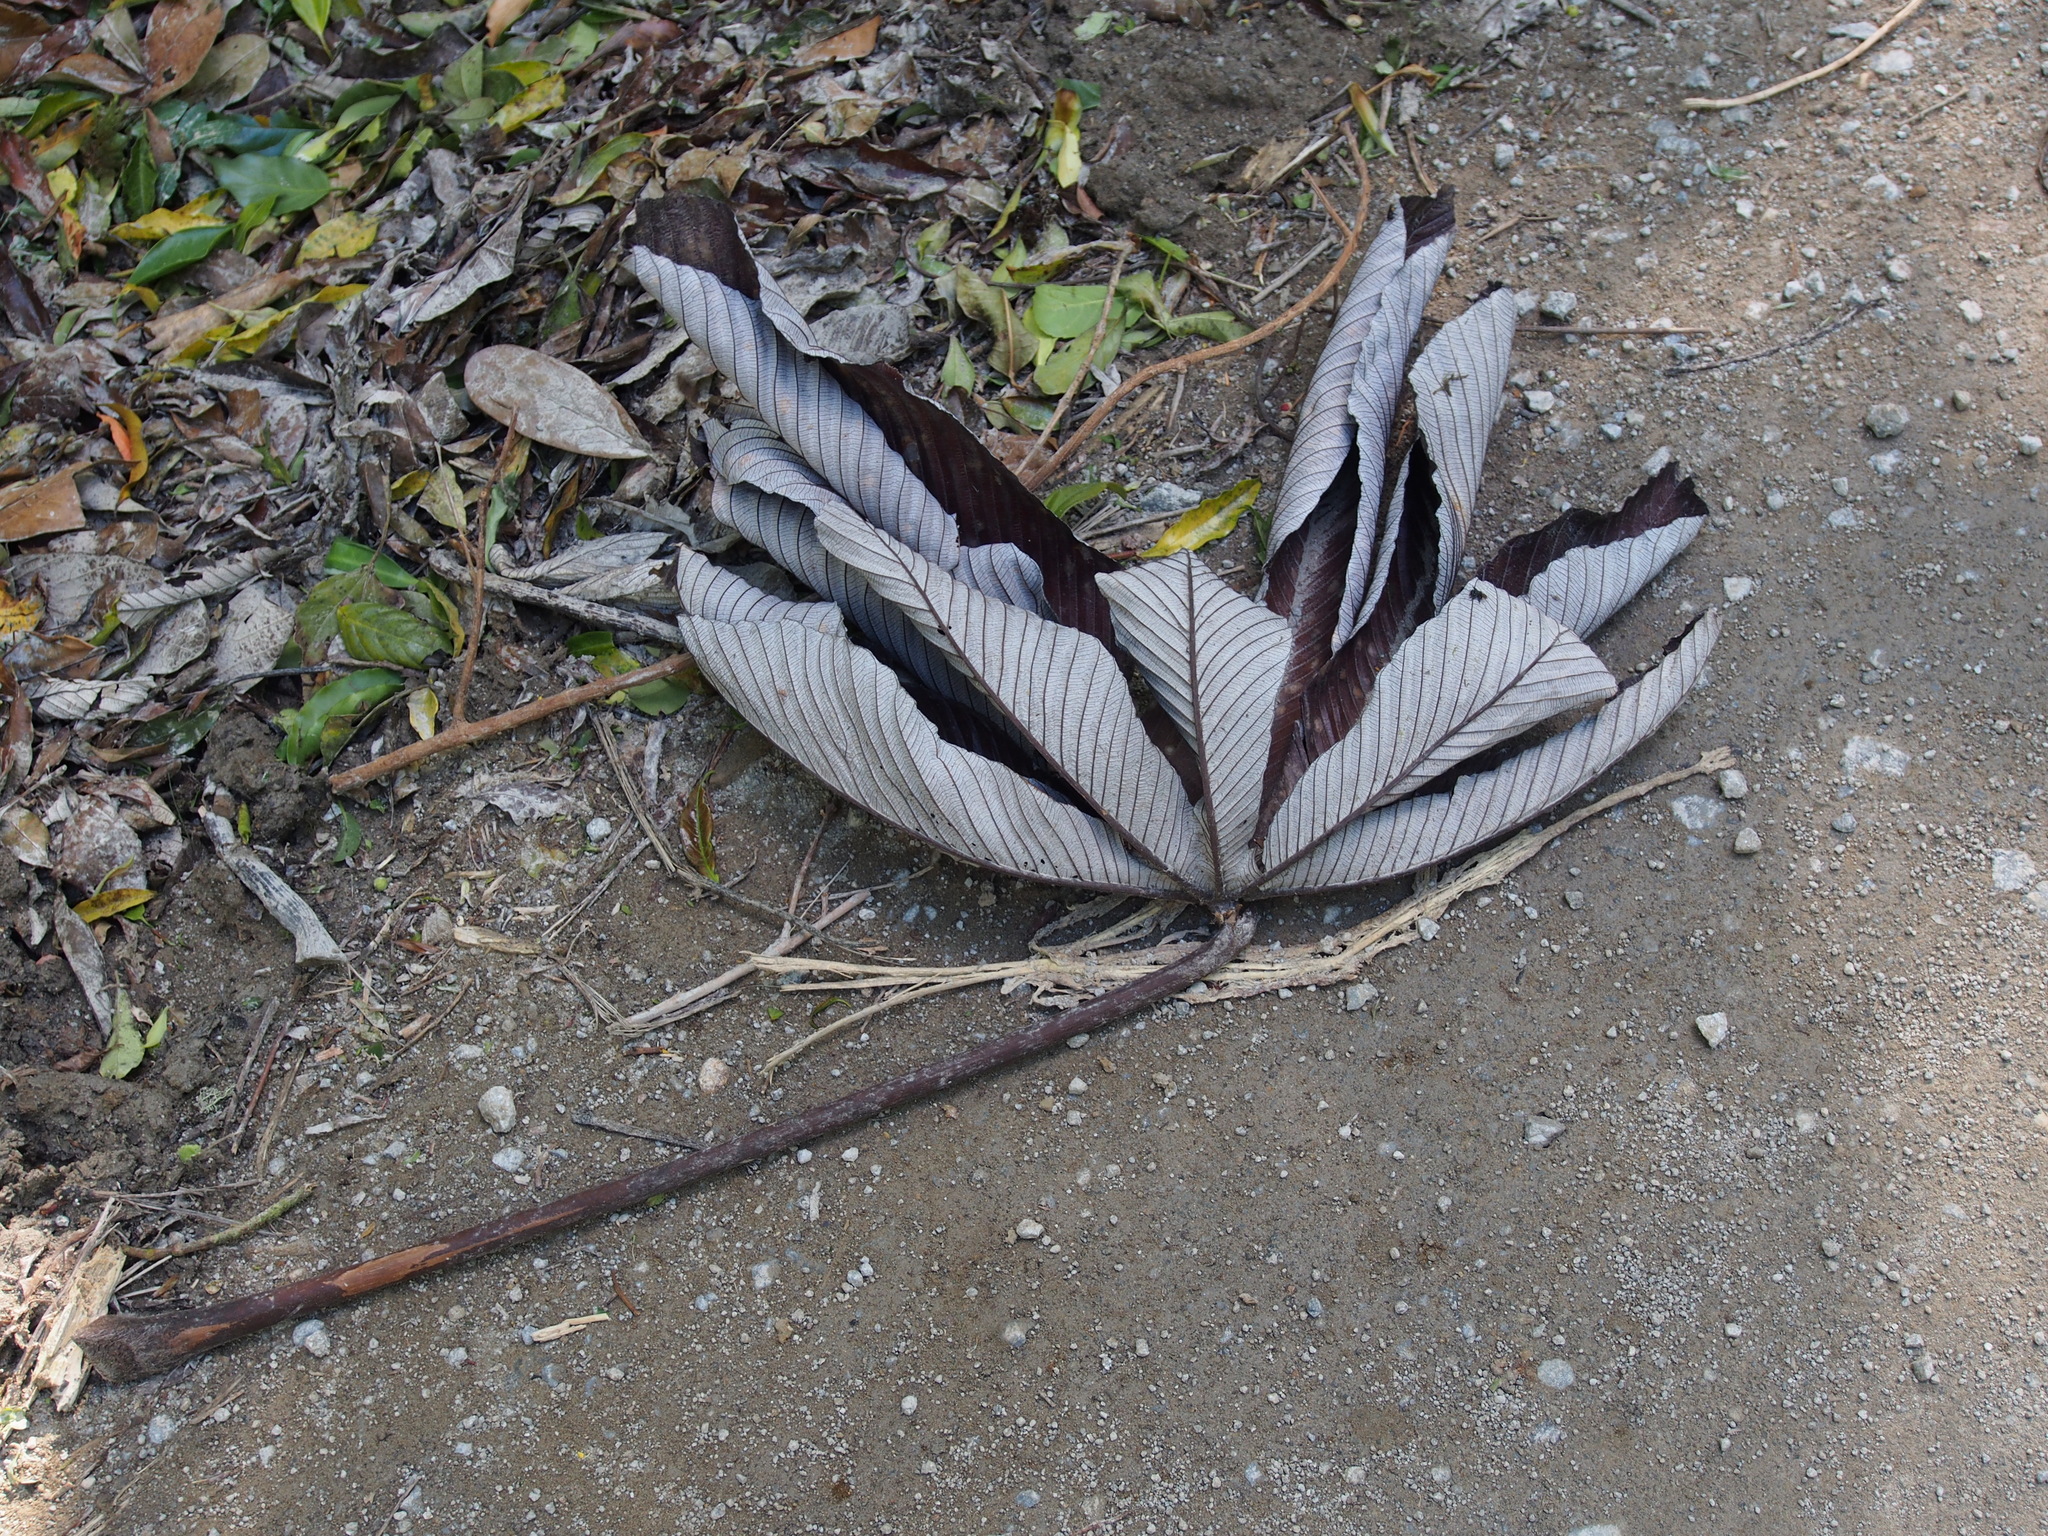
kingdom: Plantae
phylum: Tracheophyta
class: Magnoliopsida
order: Rosales
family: Urticaceae
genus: Cecropia
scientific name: Cecropia angustifolia
